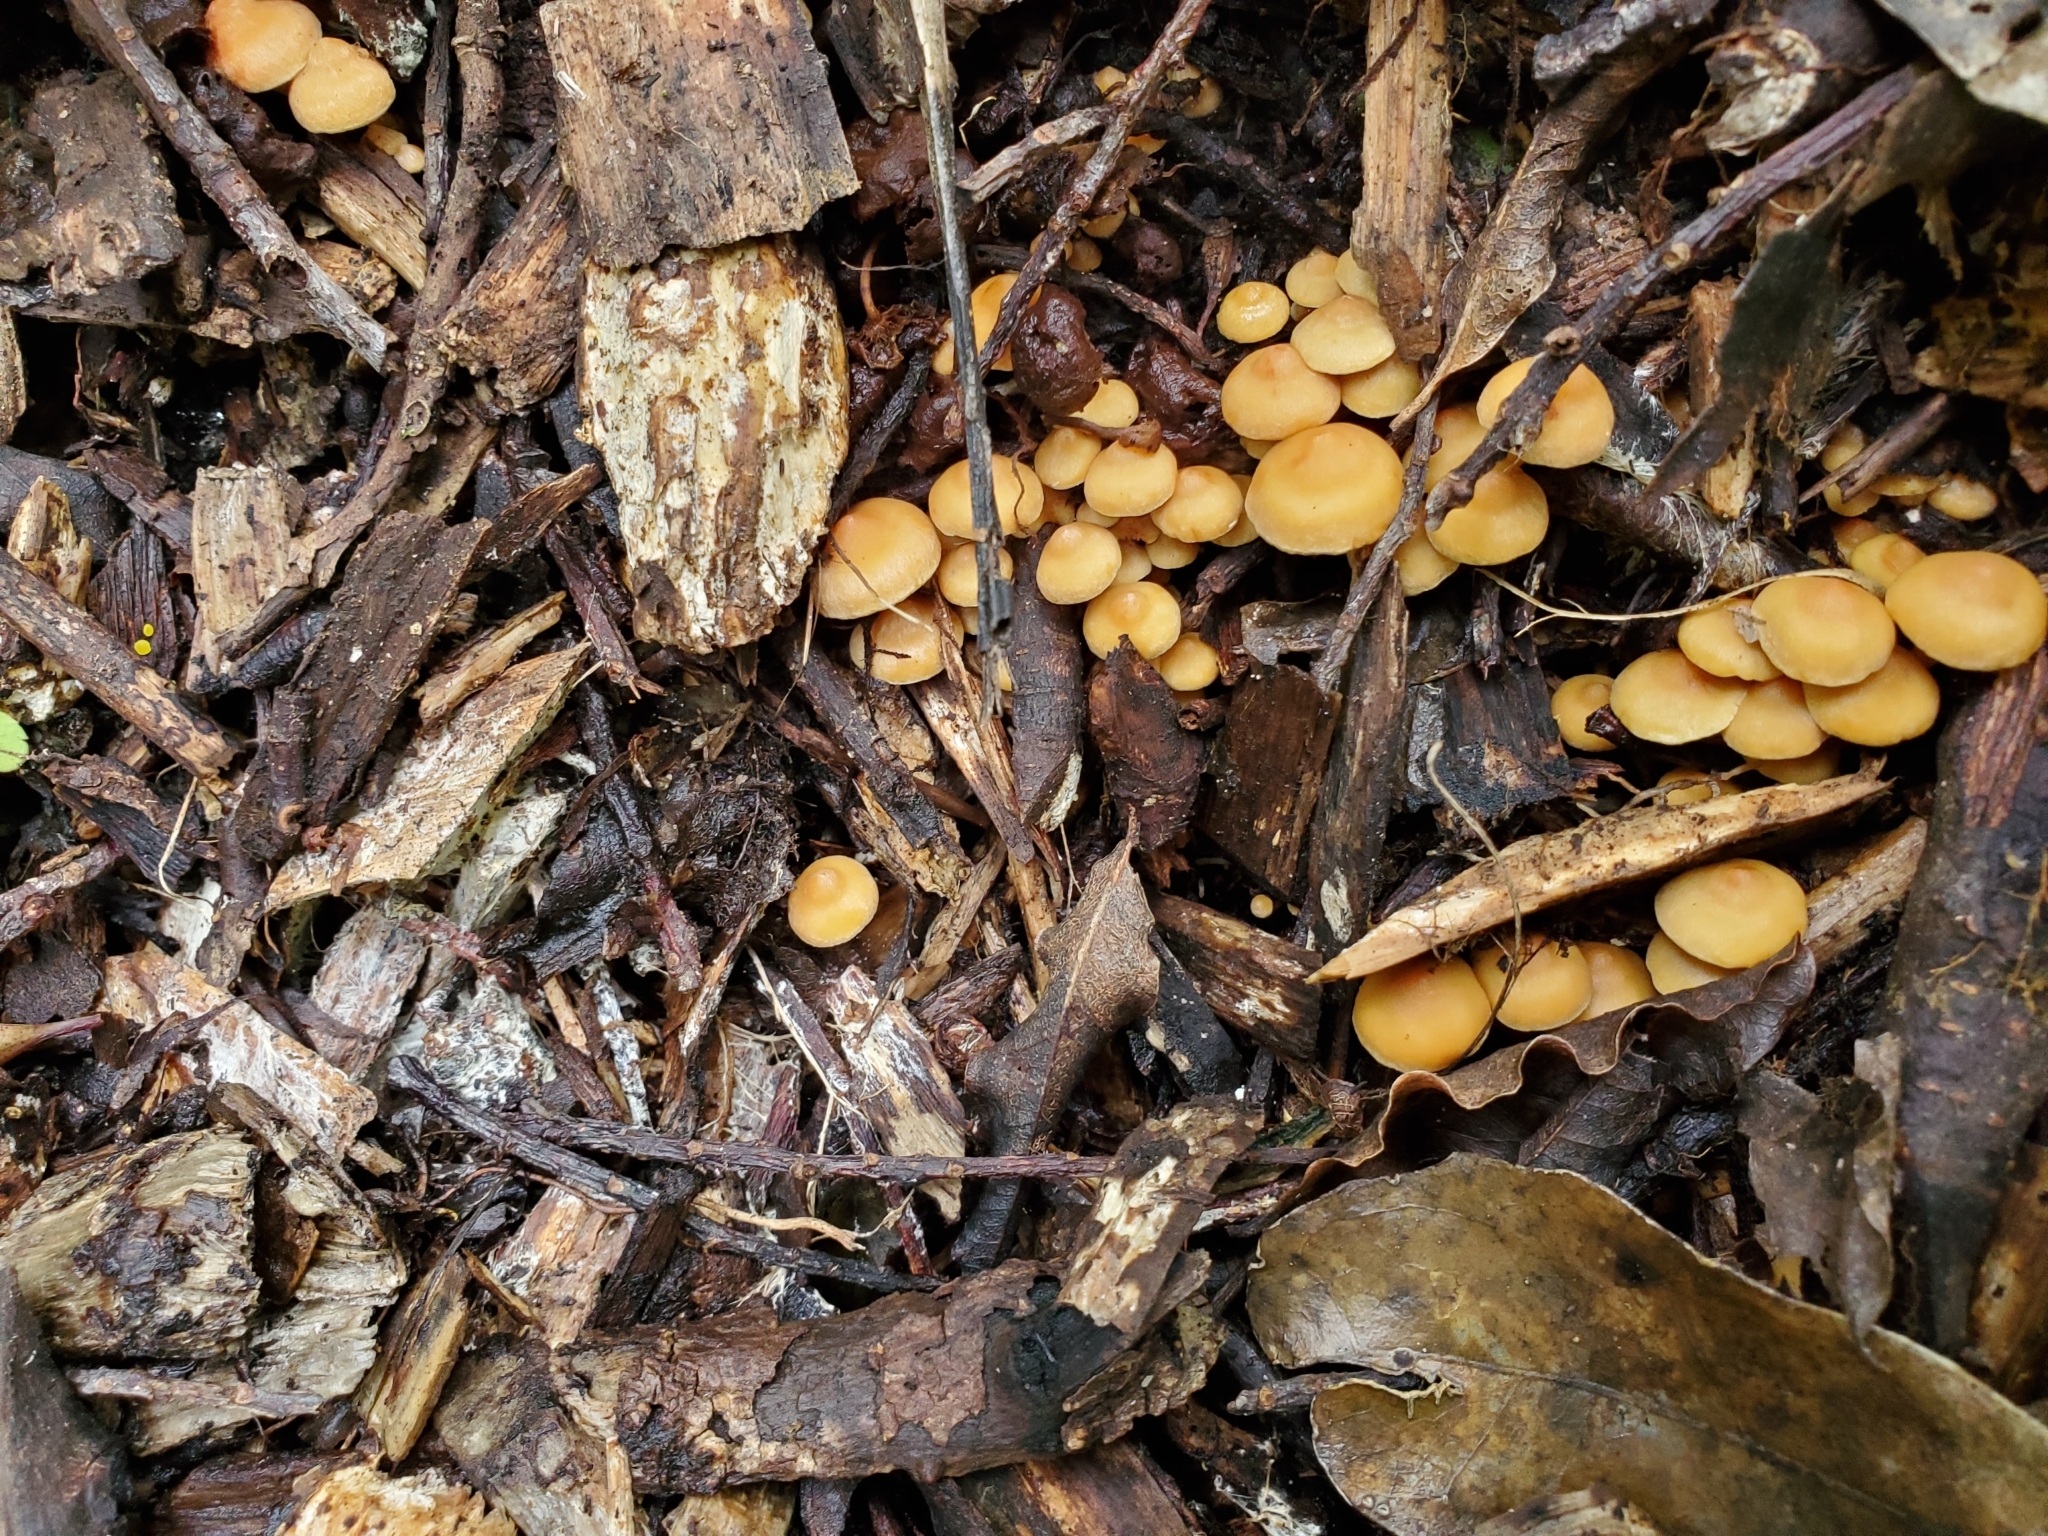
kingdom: Fungi
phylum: Basidiomycota
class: Agaricomycetes
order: Agaricales
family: Strophariaceae
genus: Hypholoma
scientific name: Hypholoma acutum
